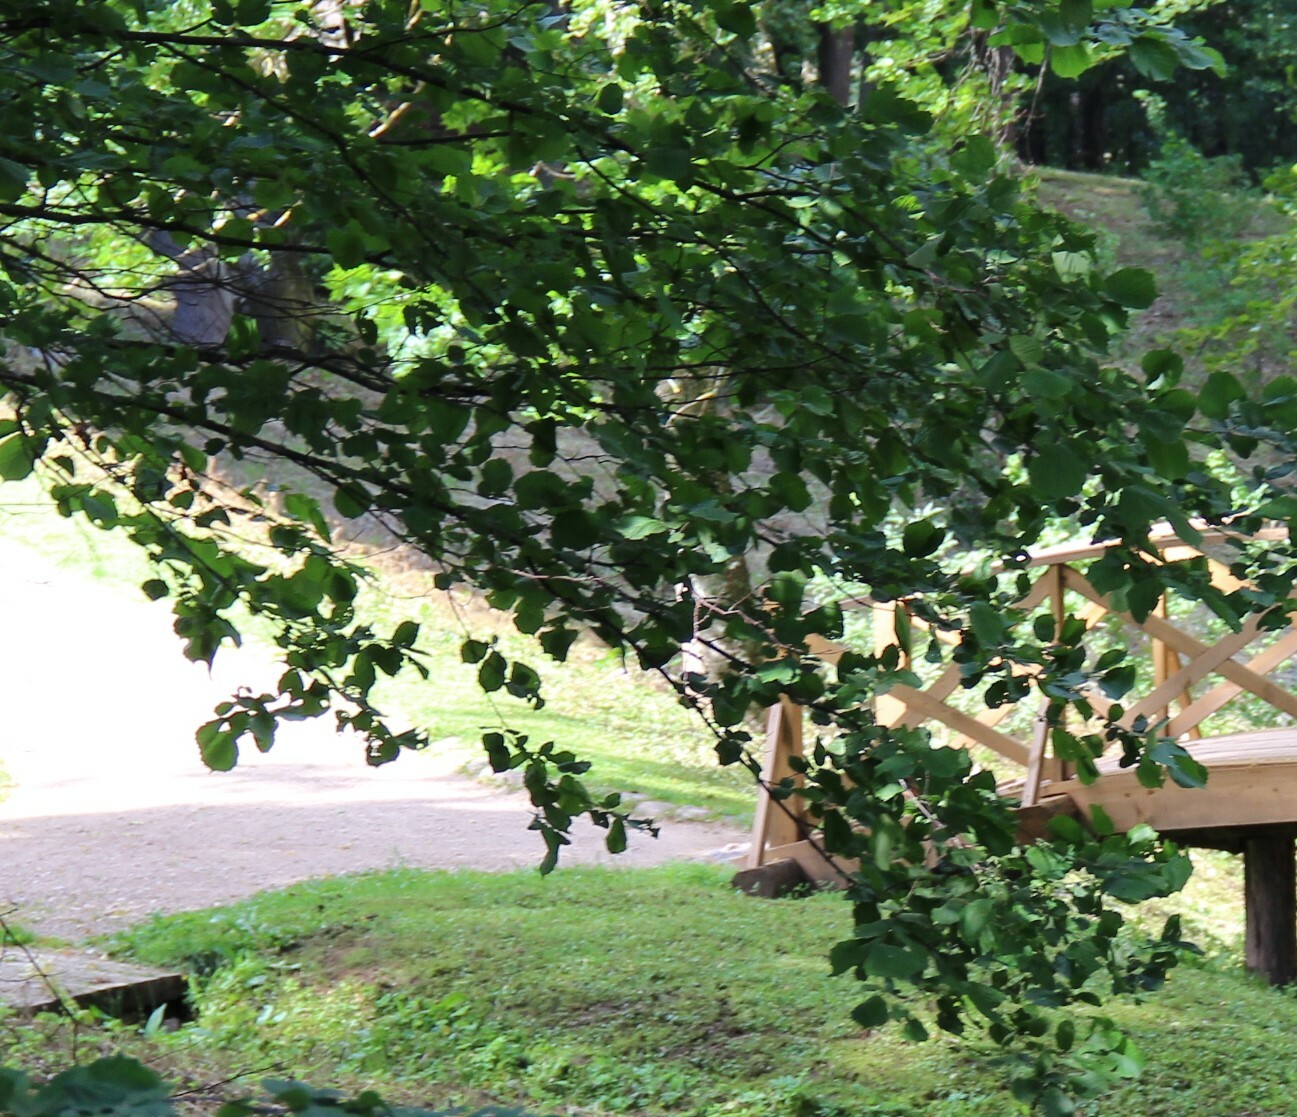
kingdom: Plantae
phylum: Tracheophyta
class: Magnoliopsida
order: Fagales
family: Betulaceae
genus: Corylus
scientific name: Corylus avellana
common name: European hazel
